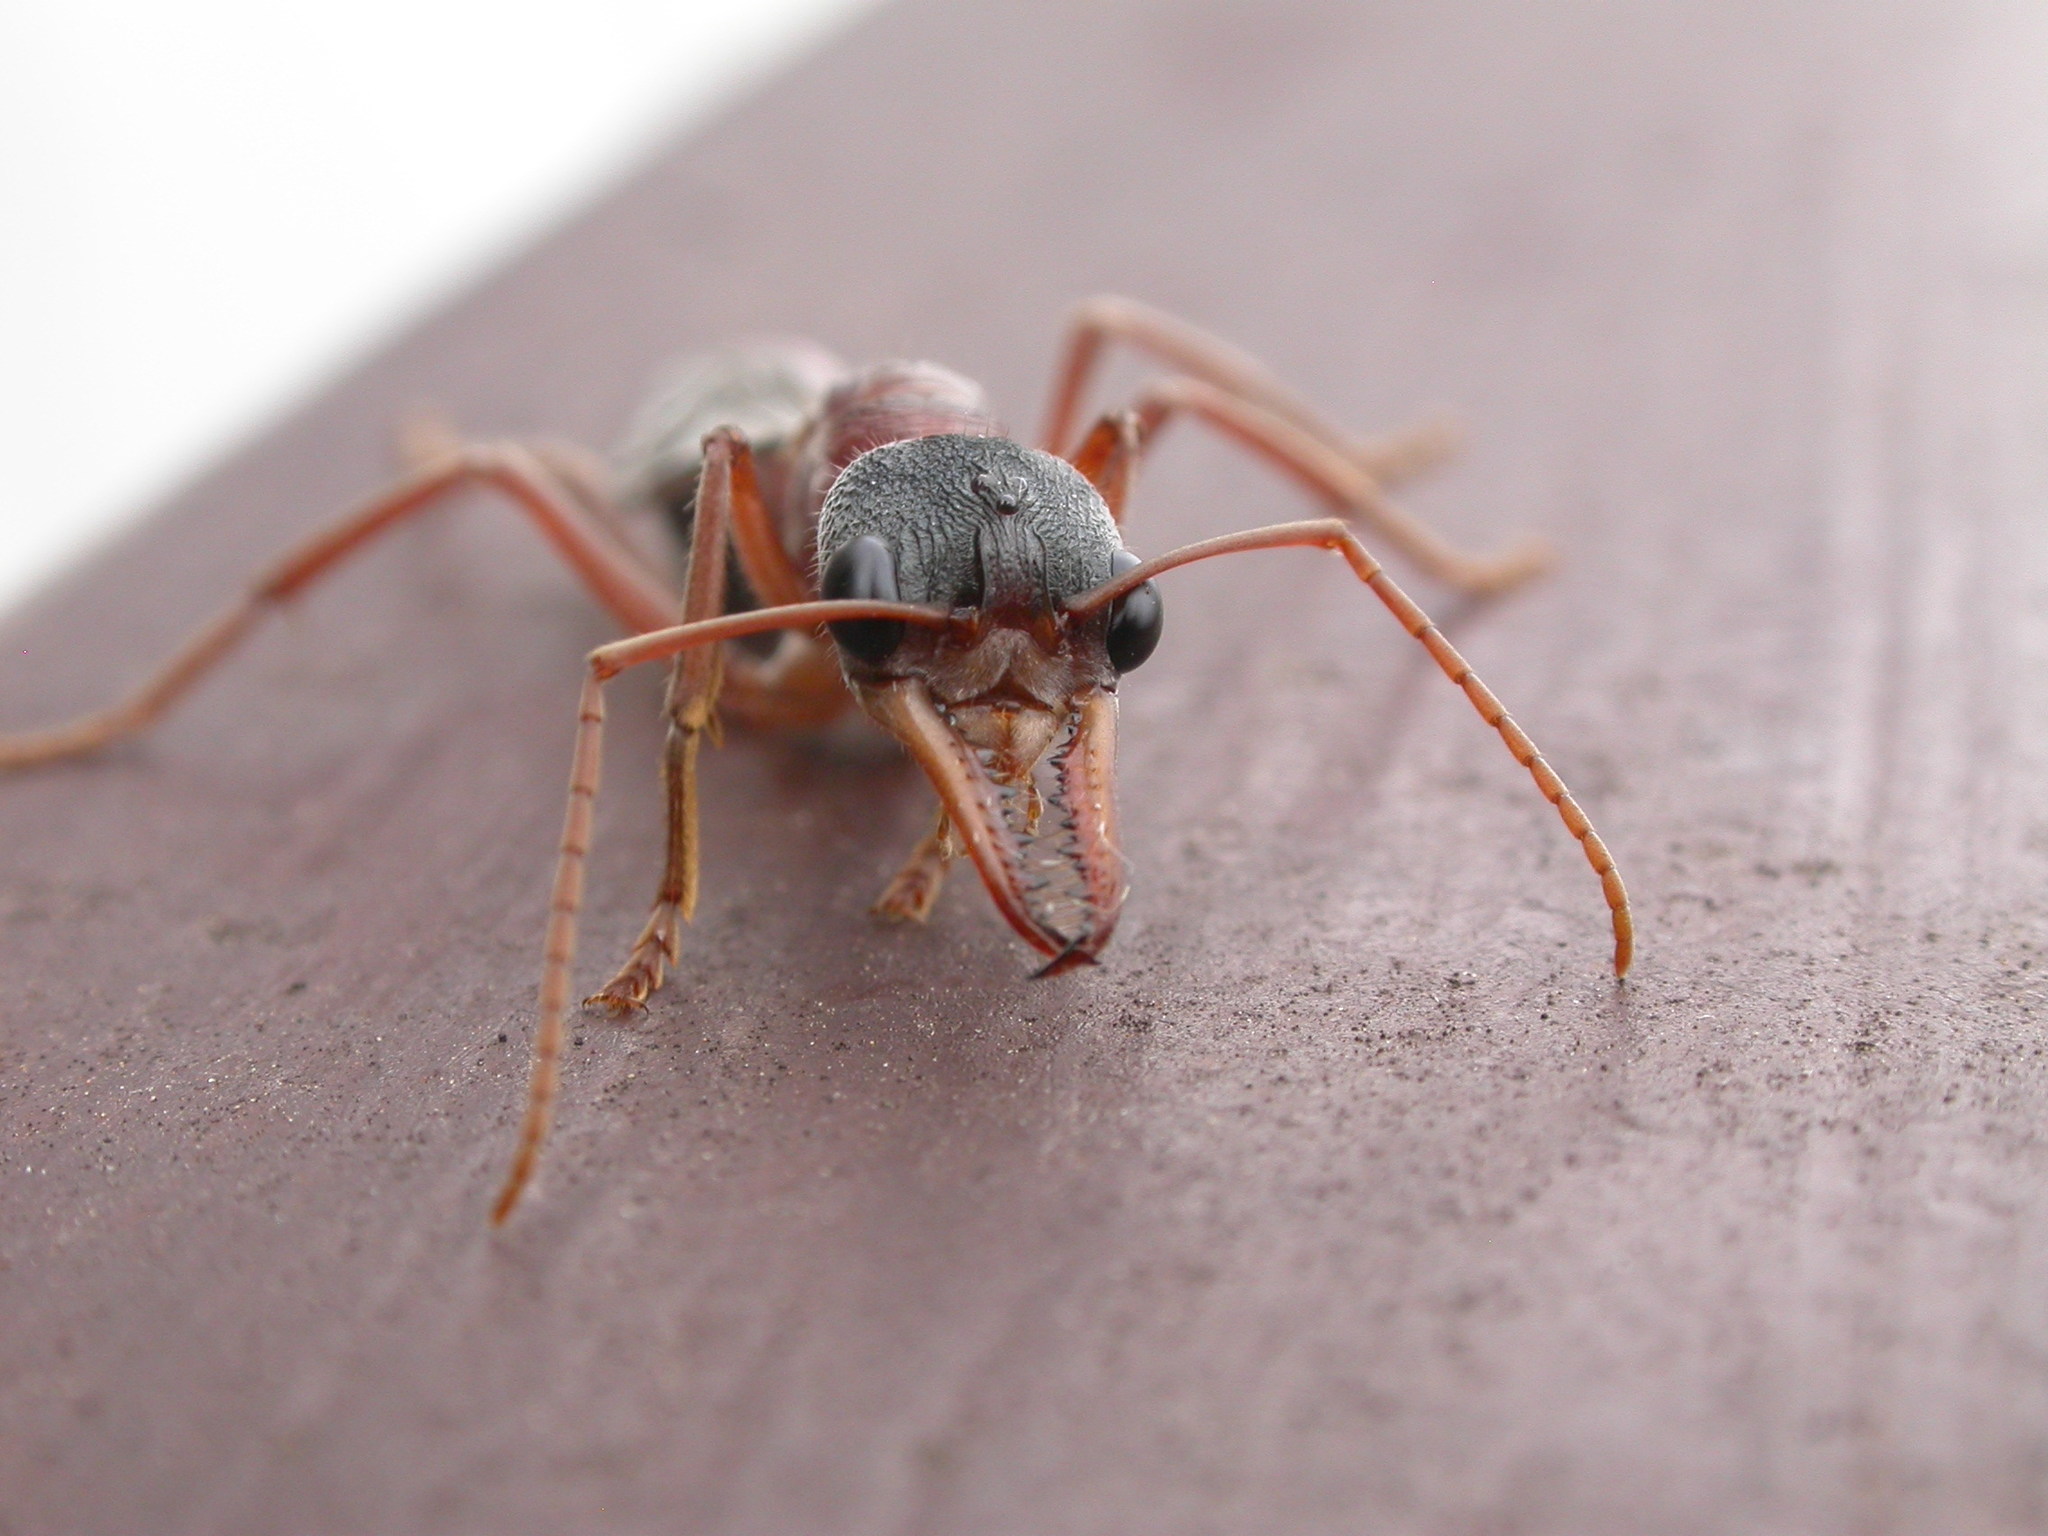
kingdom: Animalia
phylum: Arthropoda
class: Insecta
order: Hymenoptera
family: Formicidae
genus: Myrmecia
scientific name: Myrmecia nigriceps
